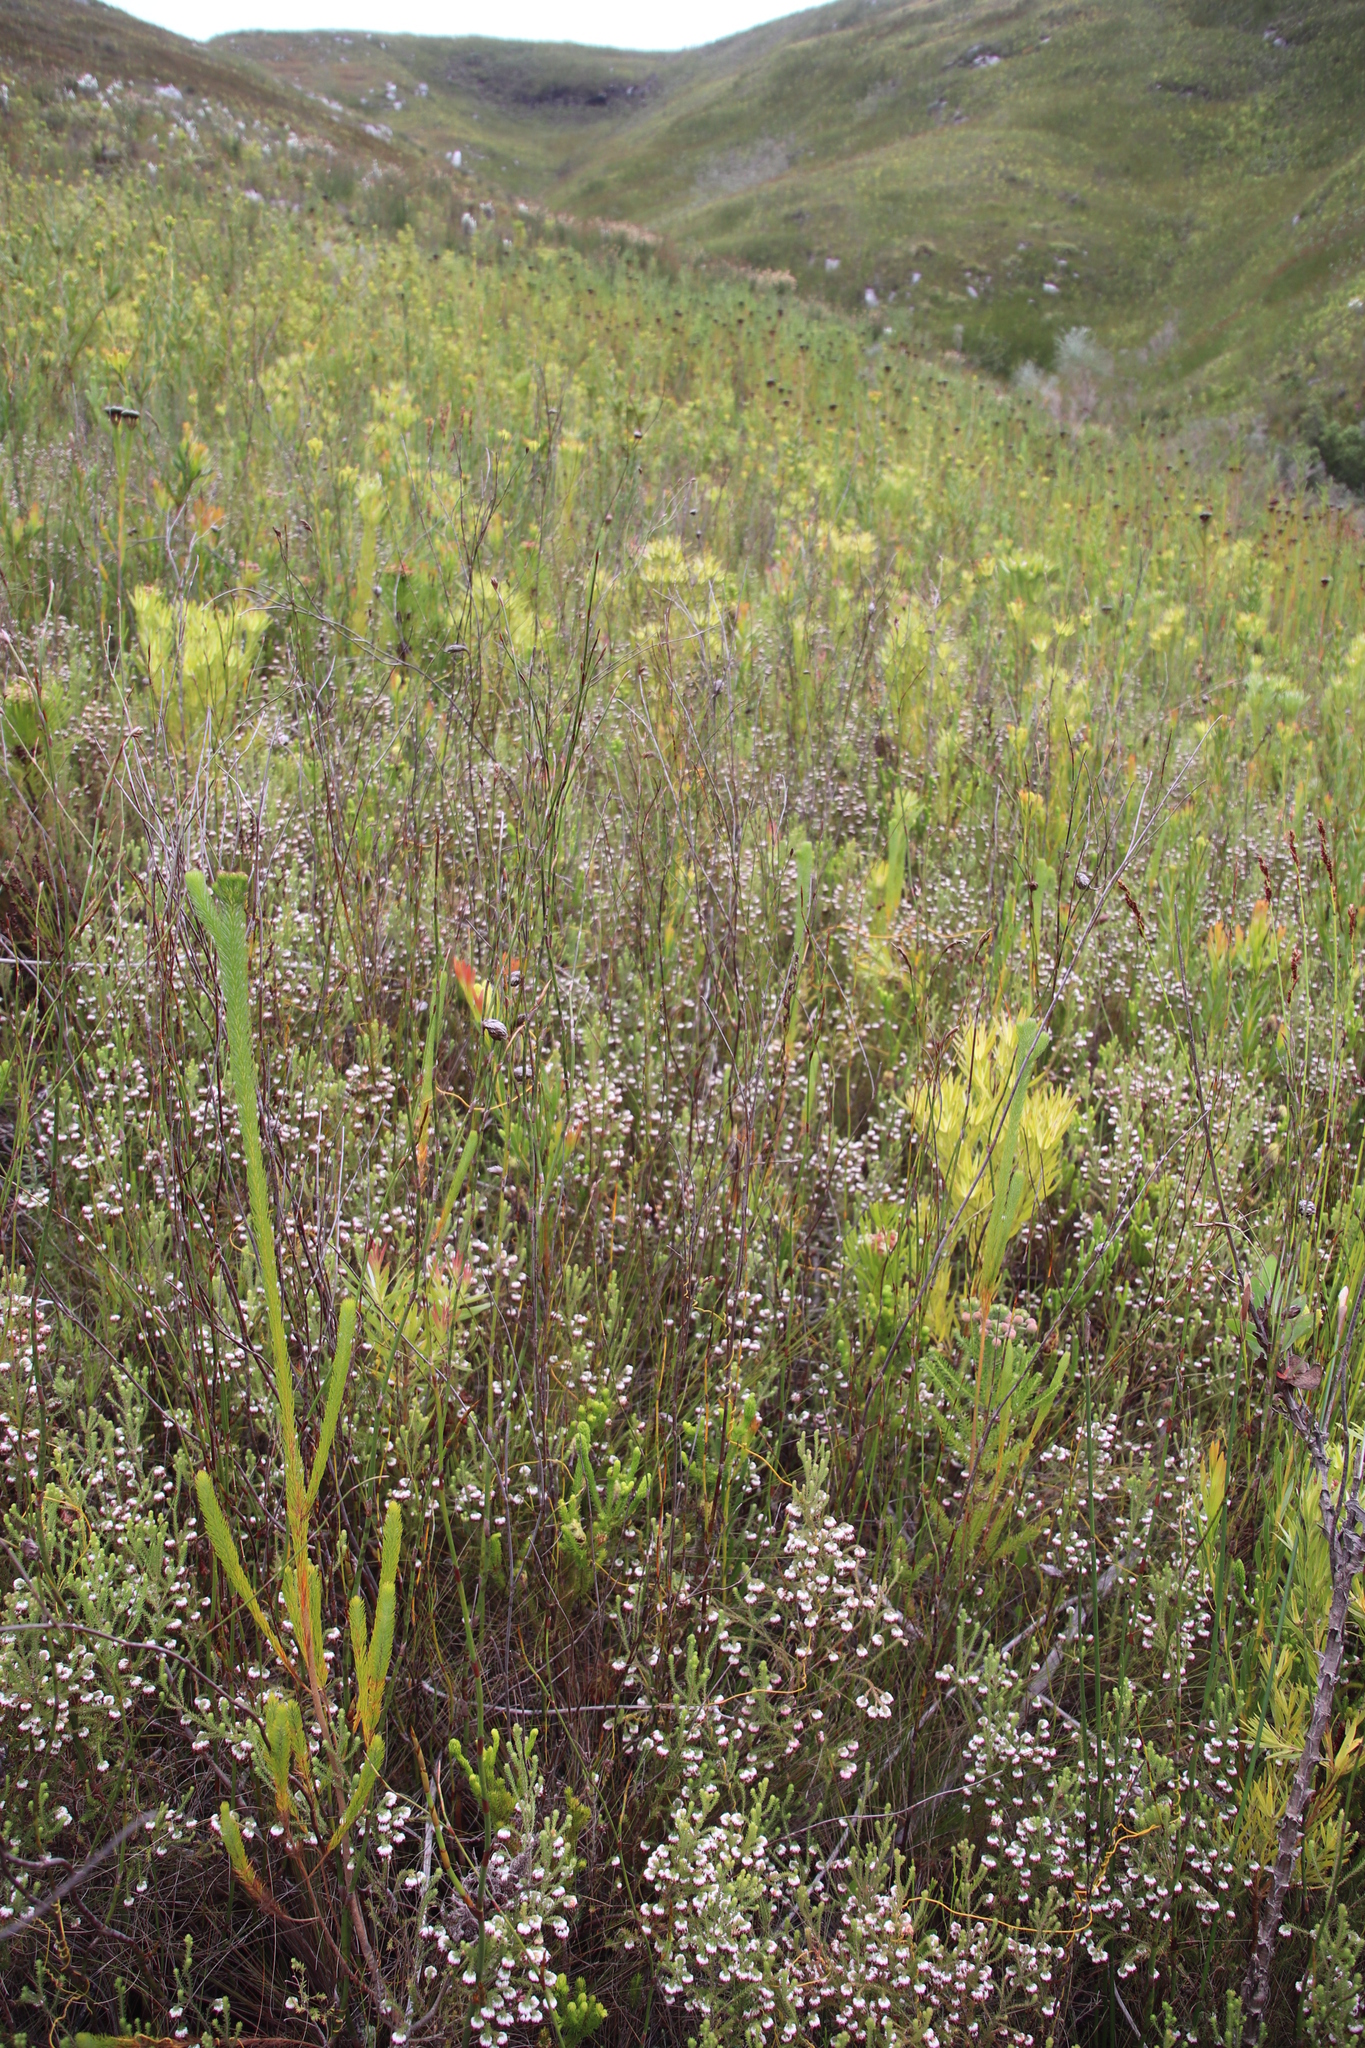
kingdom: Plantae
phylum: Tracheophyta
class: Magnoliopsida
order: Ericales
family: Ericaceae
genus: Erica
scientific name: Erica cumuliflora
